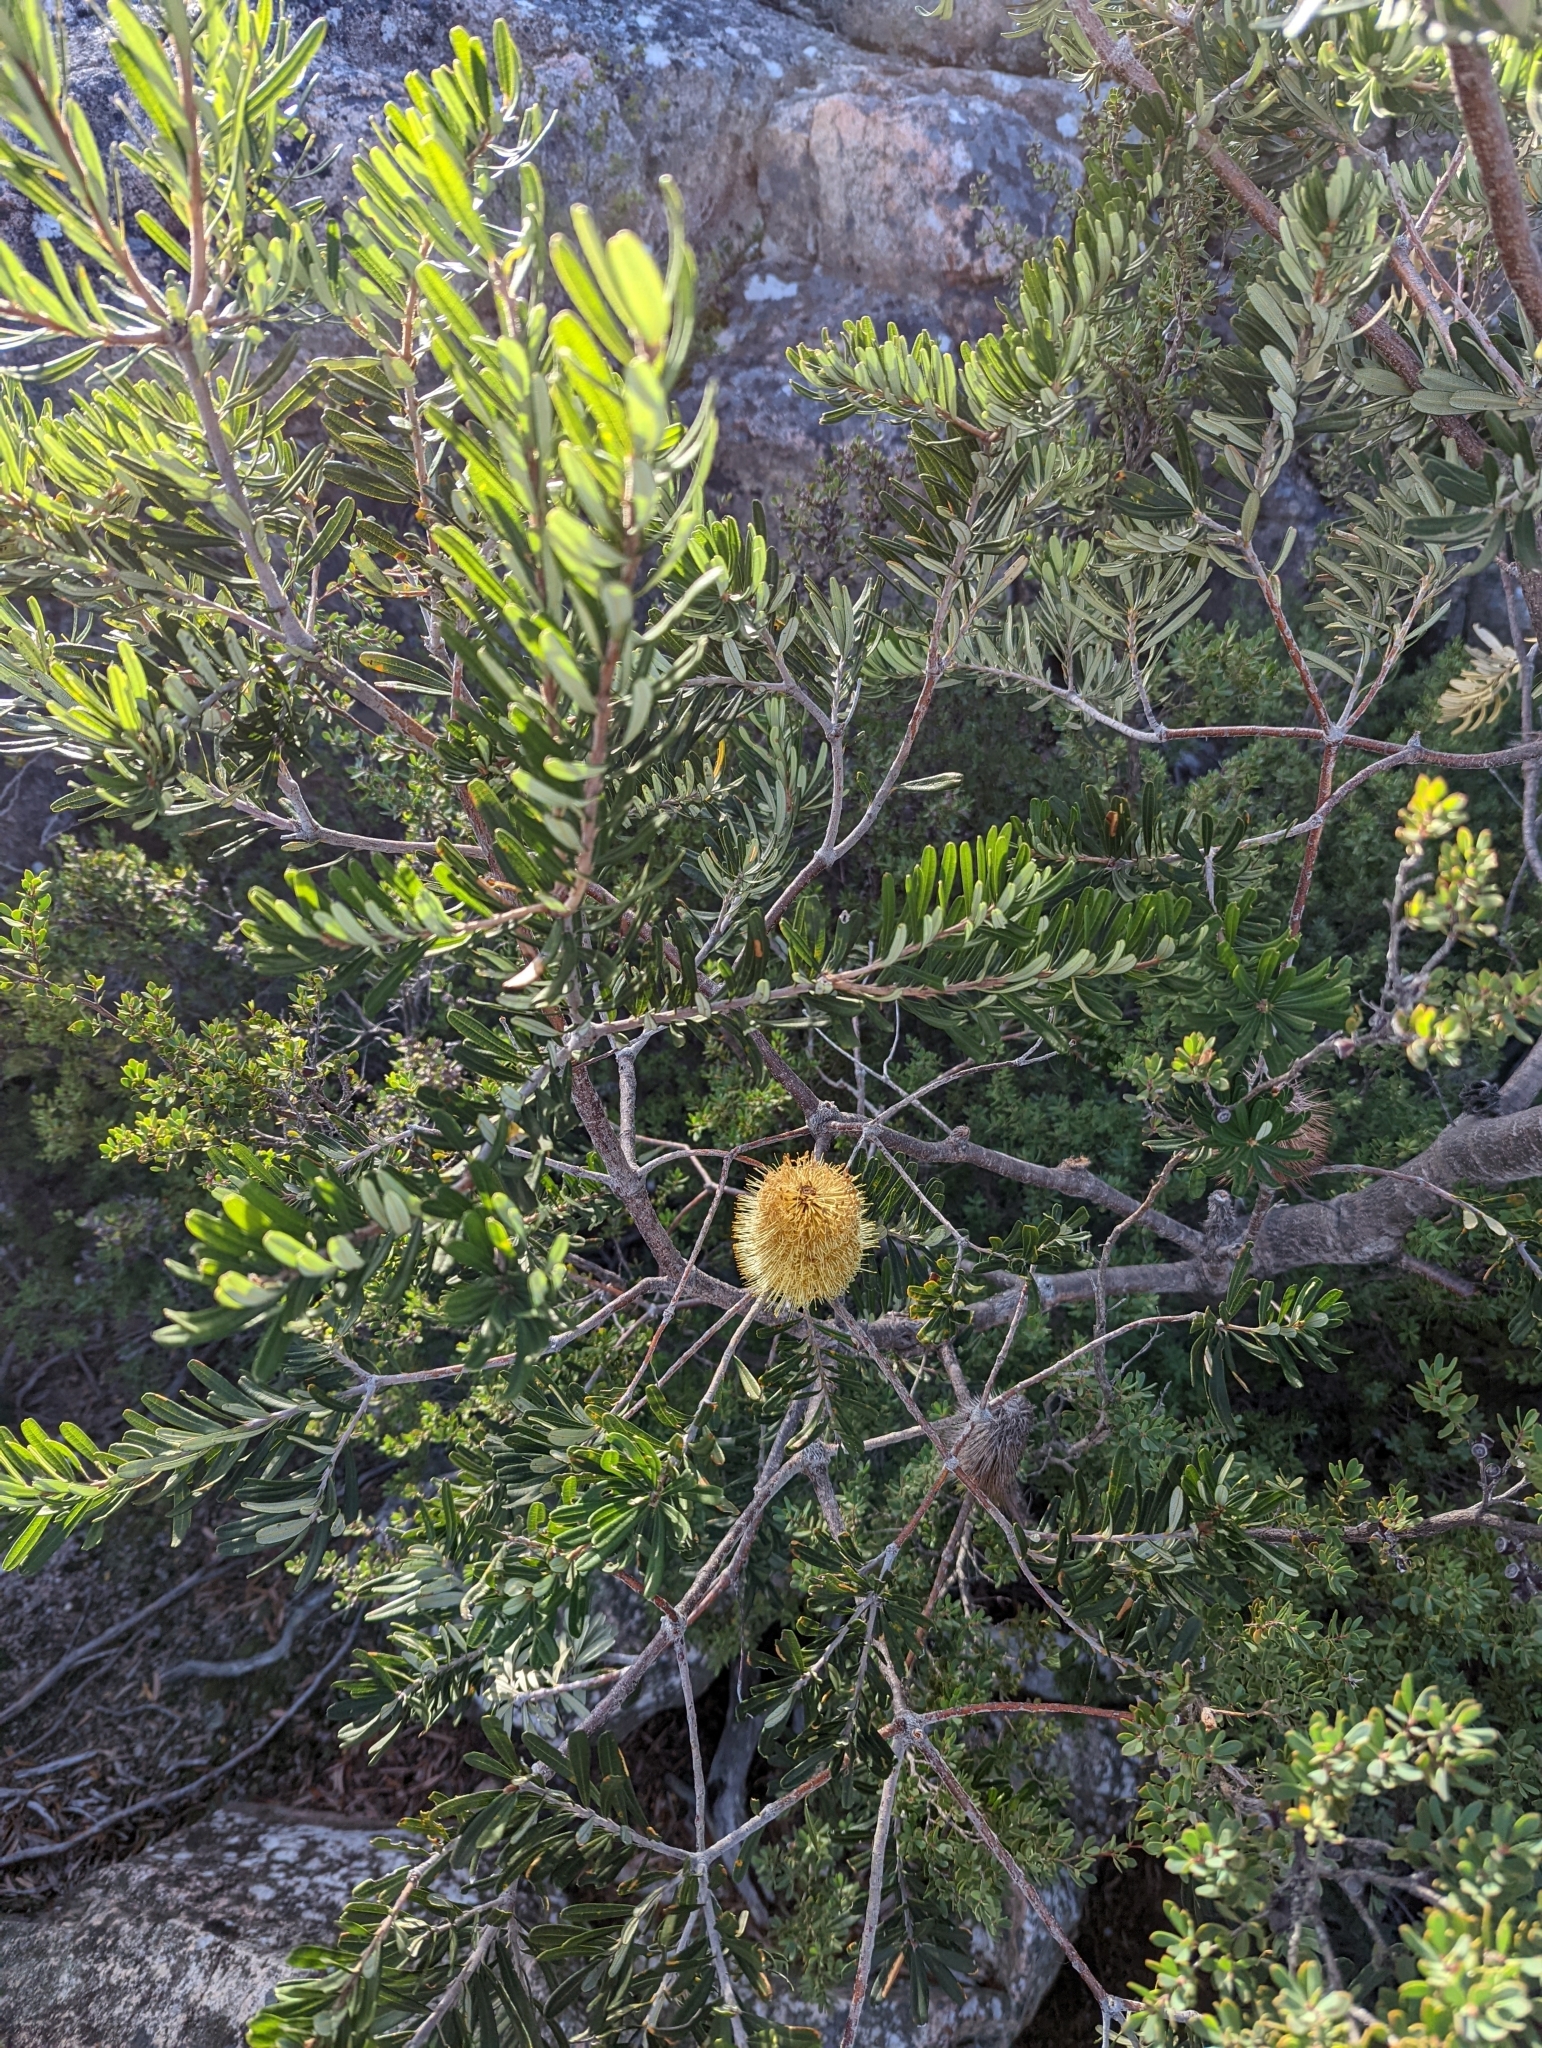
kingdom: Plantae
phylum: Tracheophyta
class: Magnoliopsida
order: Proteales
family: Proteaceae
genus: Banksia
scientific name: Banksia marginata
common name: Silver banksia
